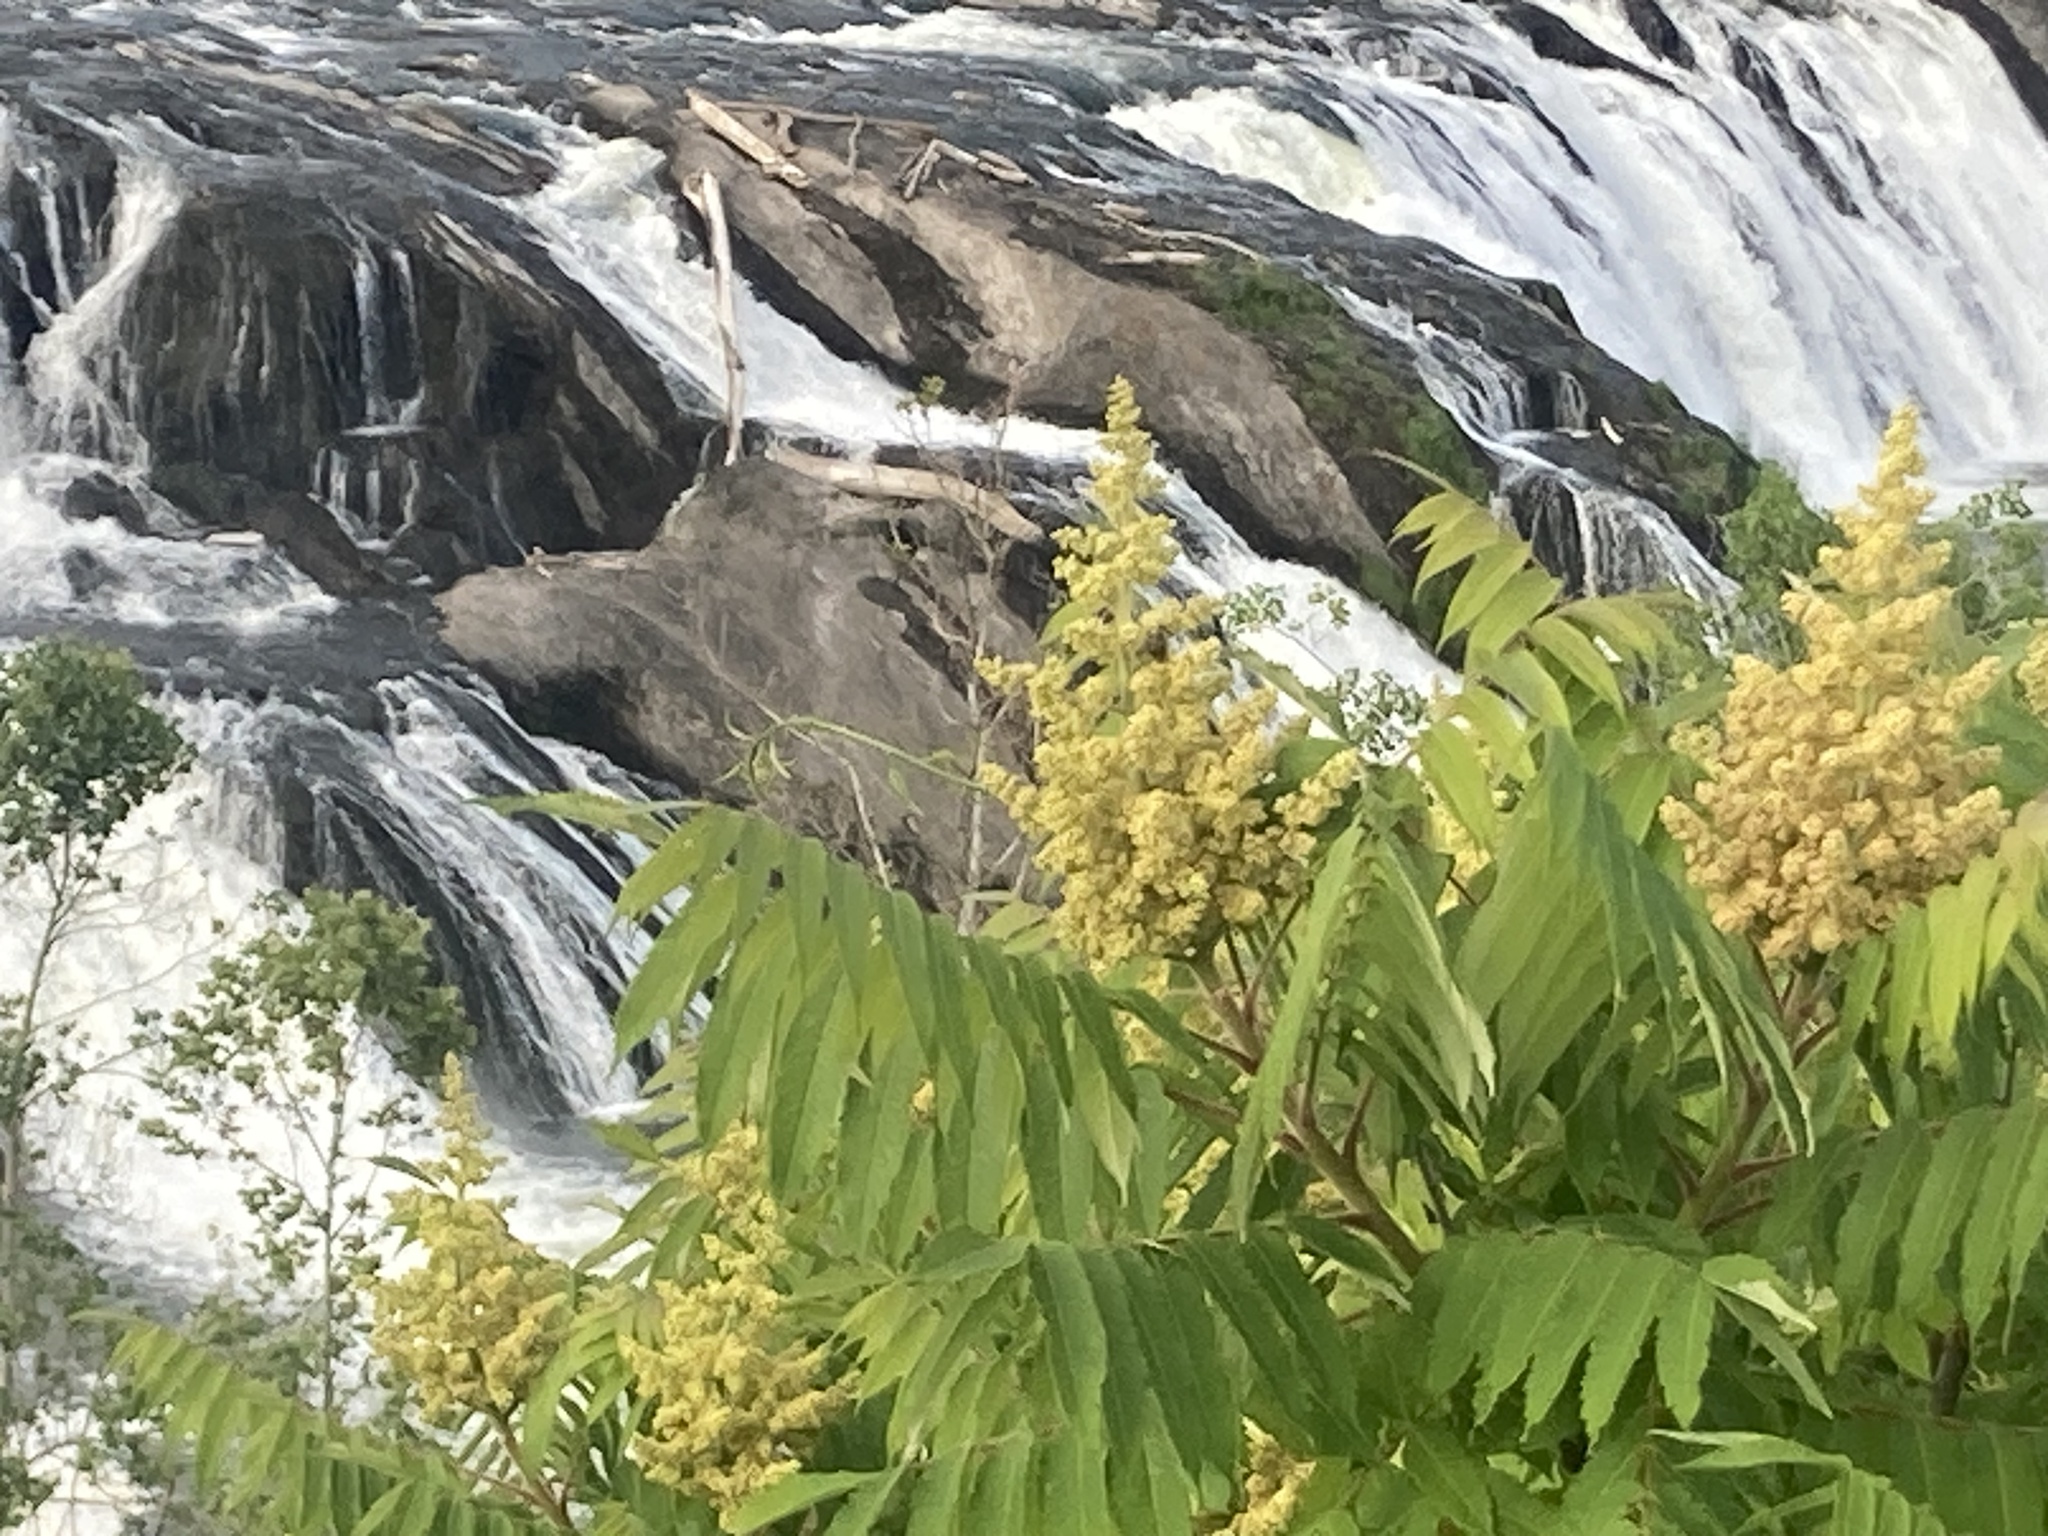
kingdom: Plantae
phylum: Tracheophyta
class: Magnoliopsida
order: Sapindales
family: Simaroubaceae
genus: Ailanthus
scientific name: Ailanthus altissima
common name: Tree-of-heaven
